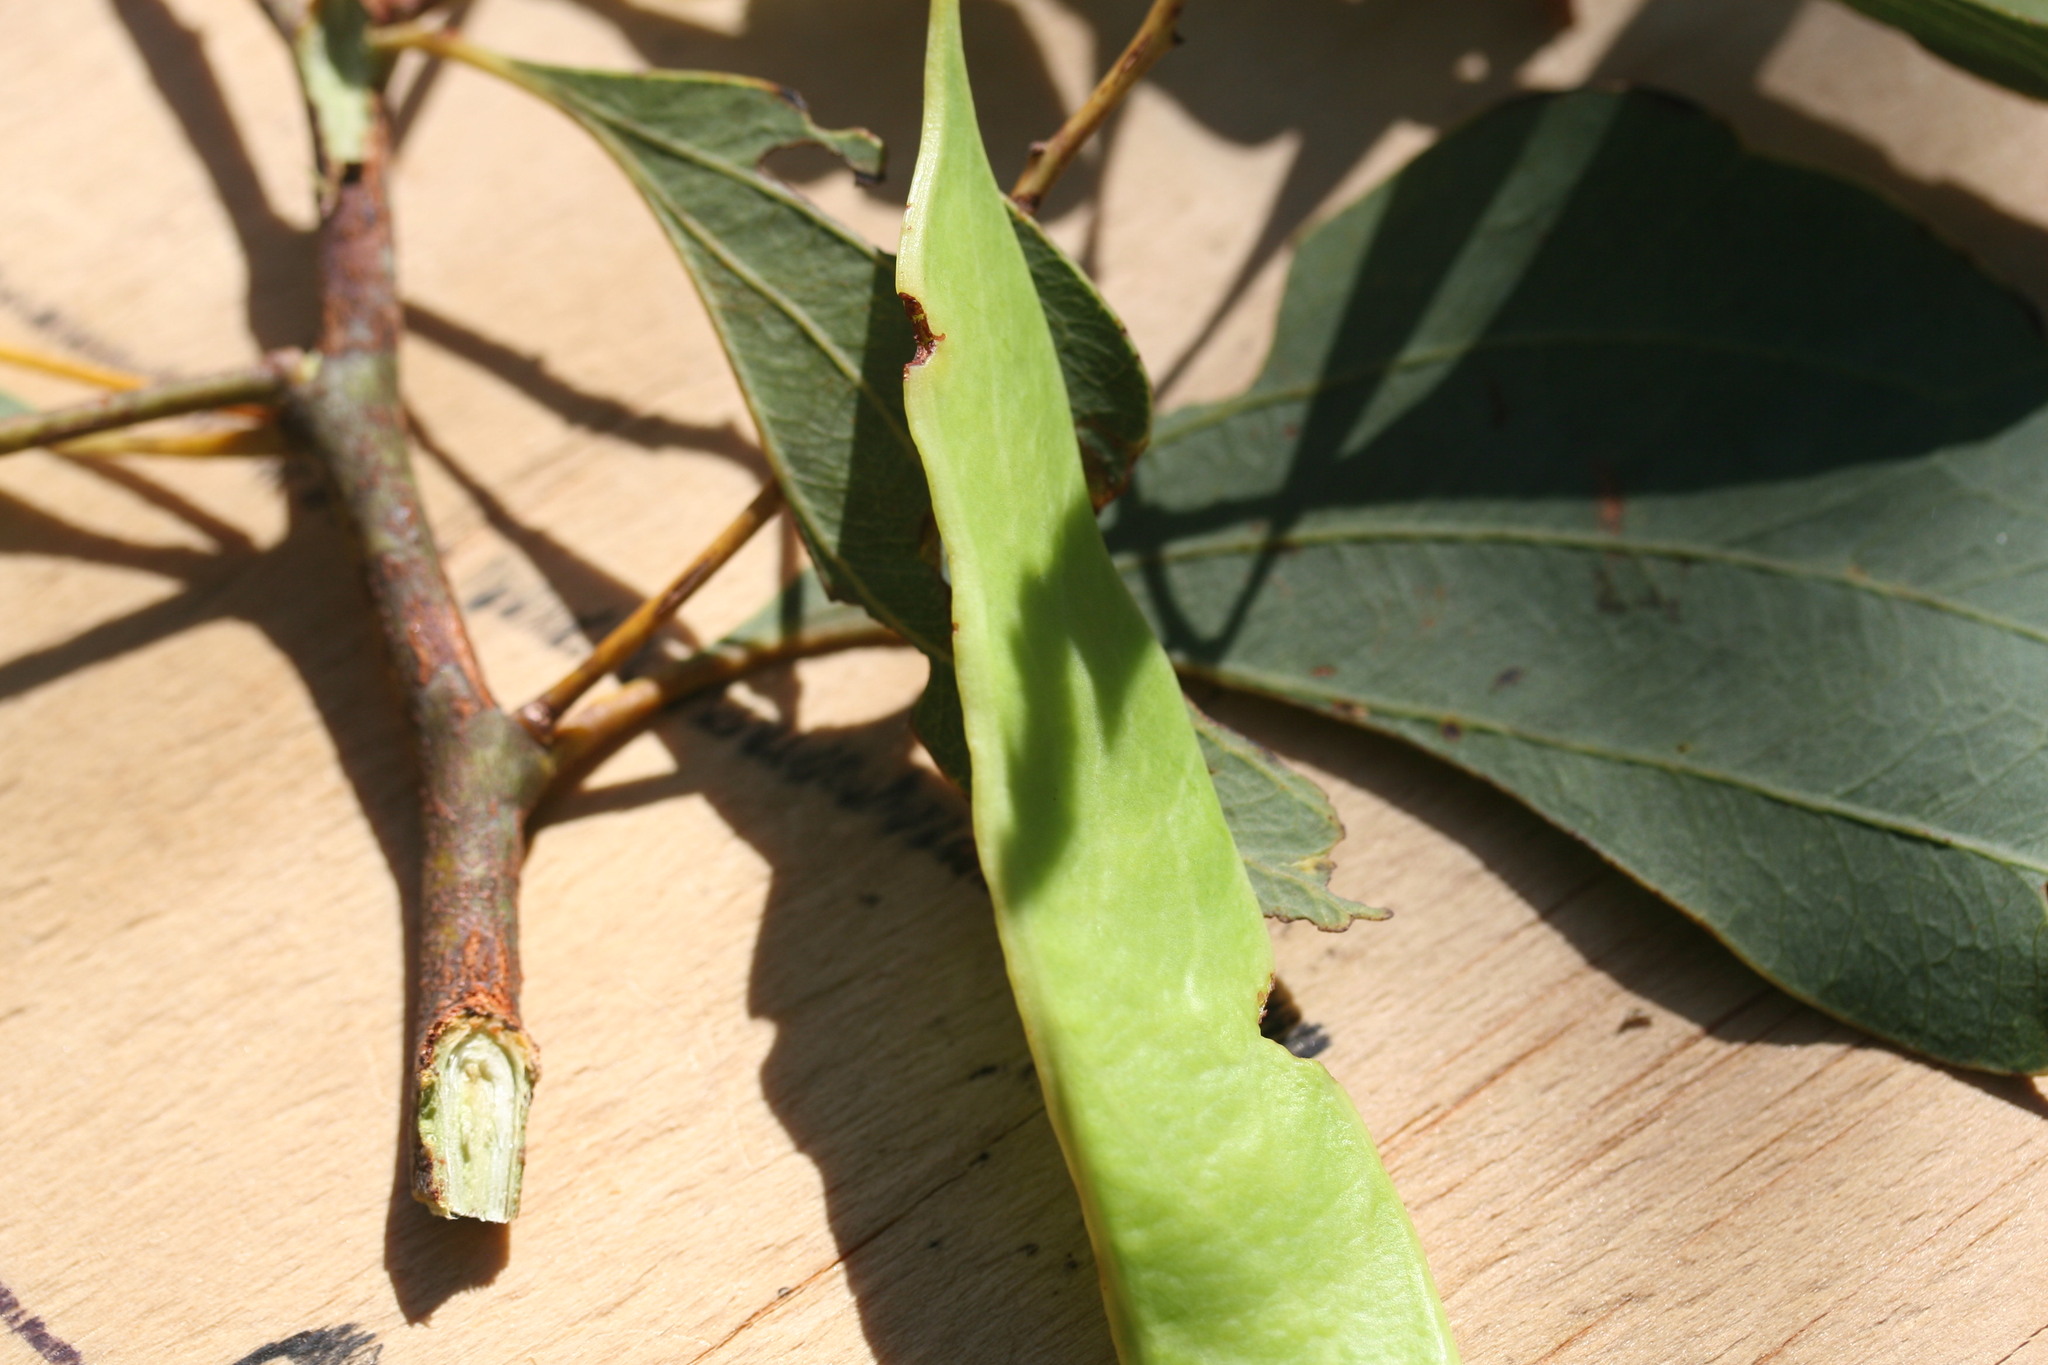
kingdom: Plantae
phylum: Tracheophyta
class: Magnoliopsida
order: Fabales
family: Fabaceae
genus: Acacia
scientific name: Acacia platycarpa
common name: Ghost wattle
